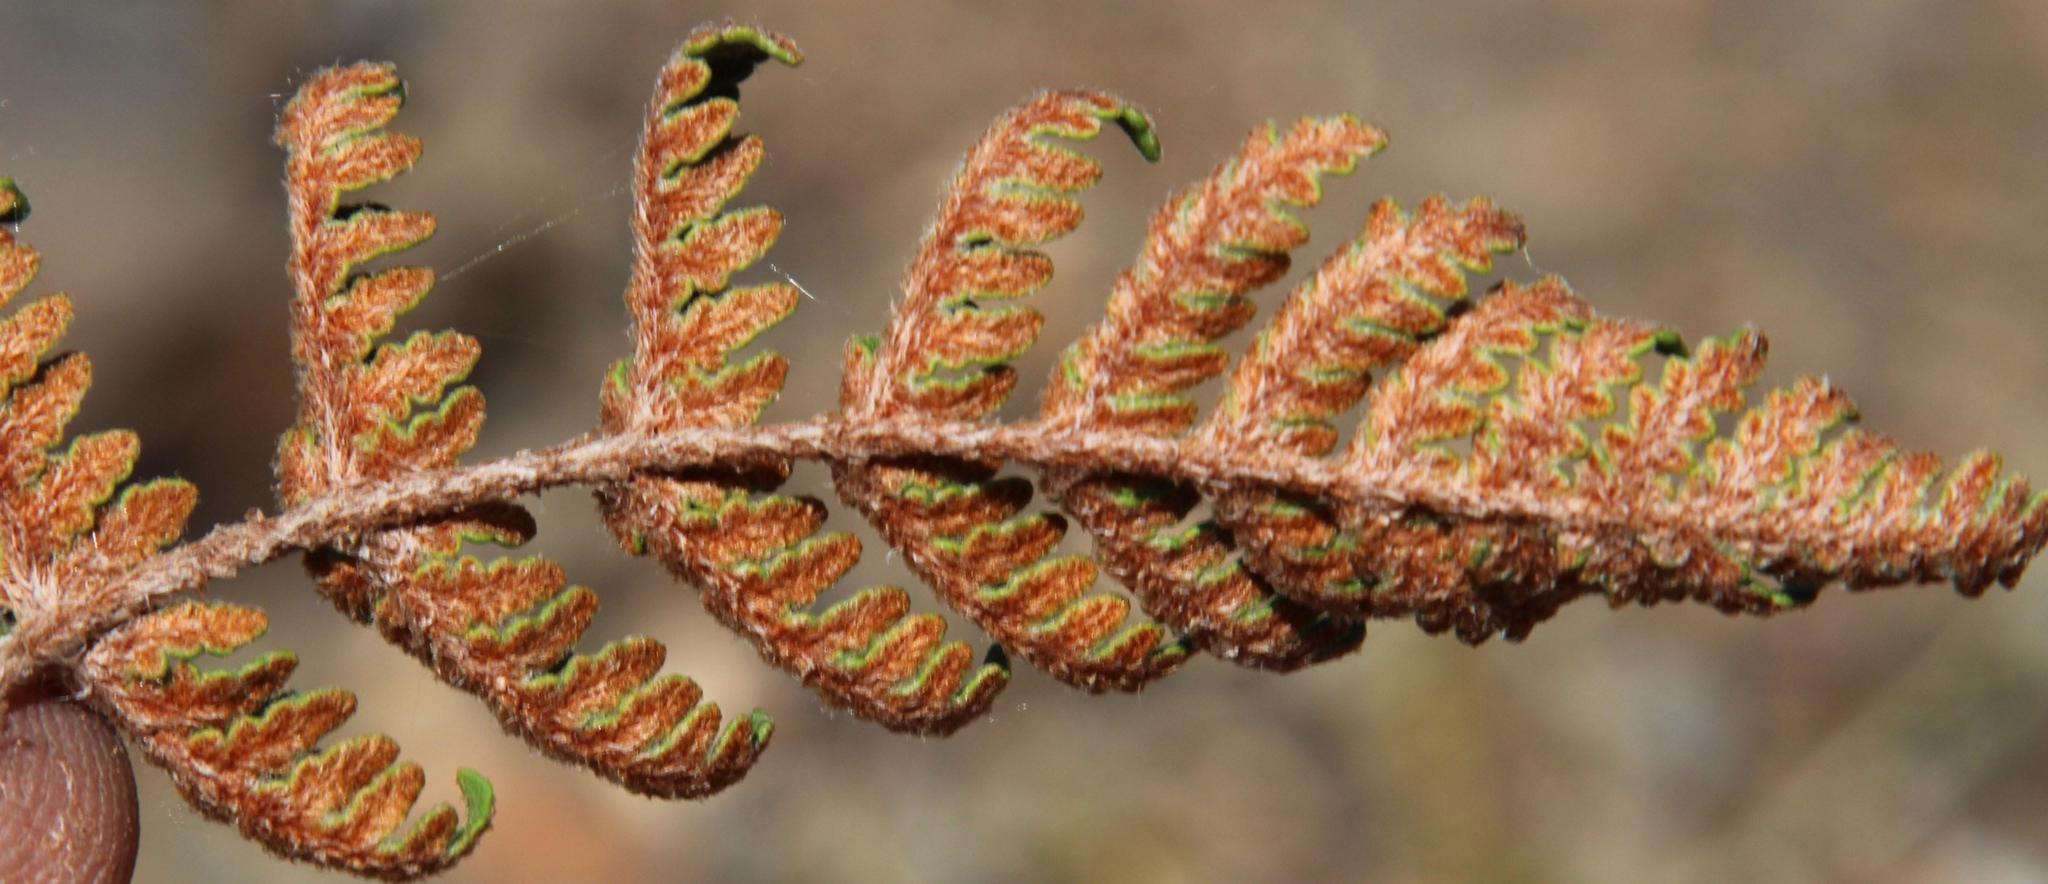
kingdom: Plantae
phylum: Tracheophyta
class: Polypodiopsida
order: Polypodiales
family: Pteridaceae
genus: Cheilanthes
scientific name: Cheilanthes eckloniana
